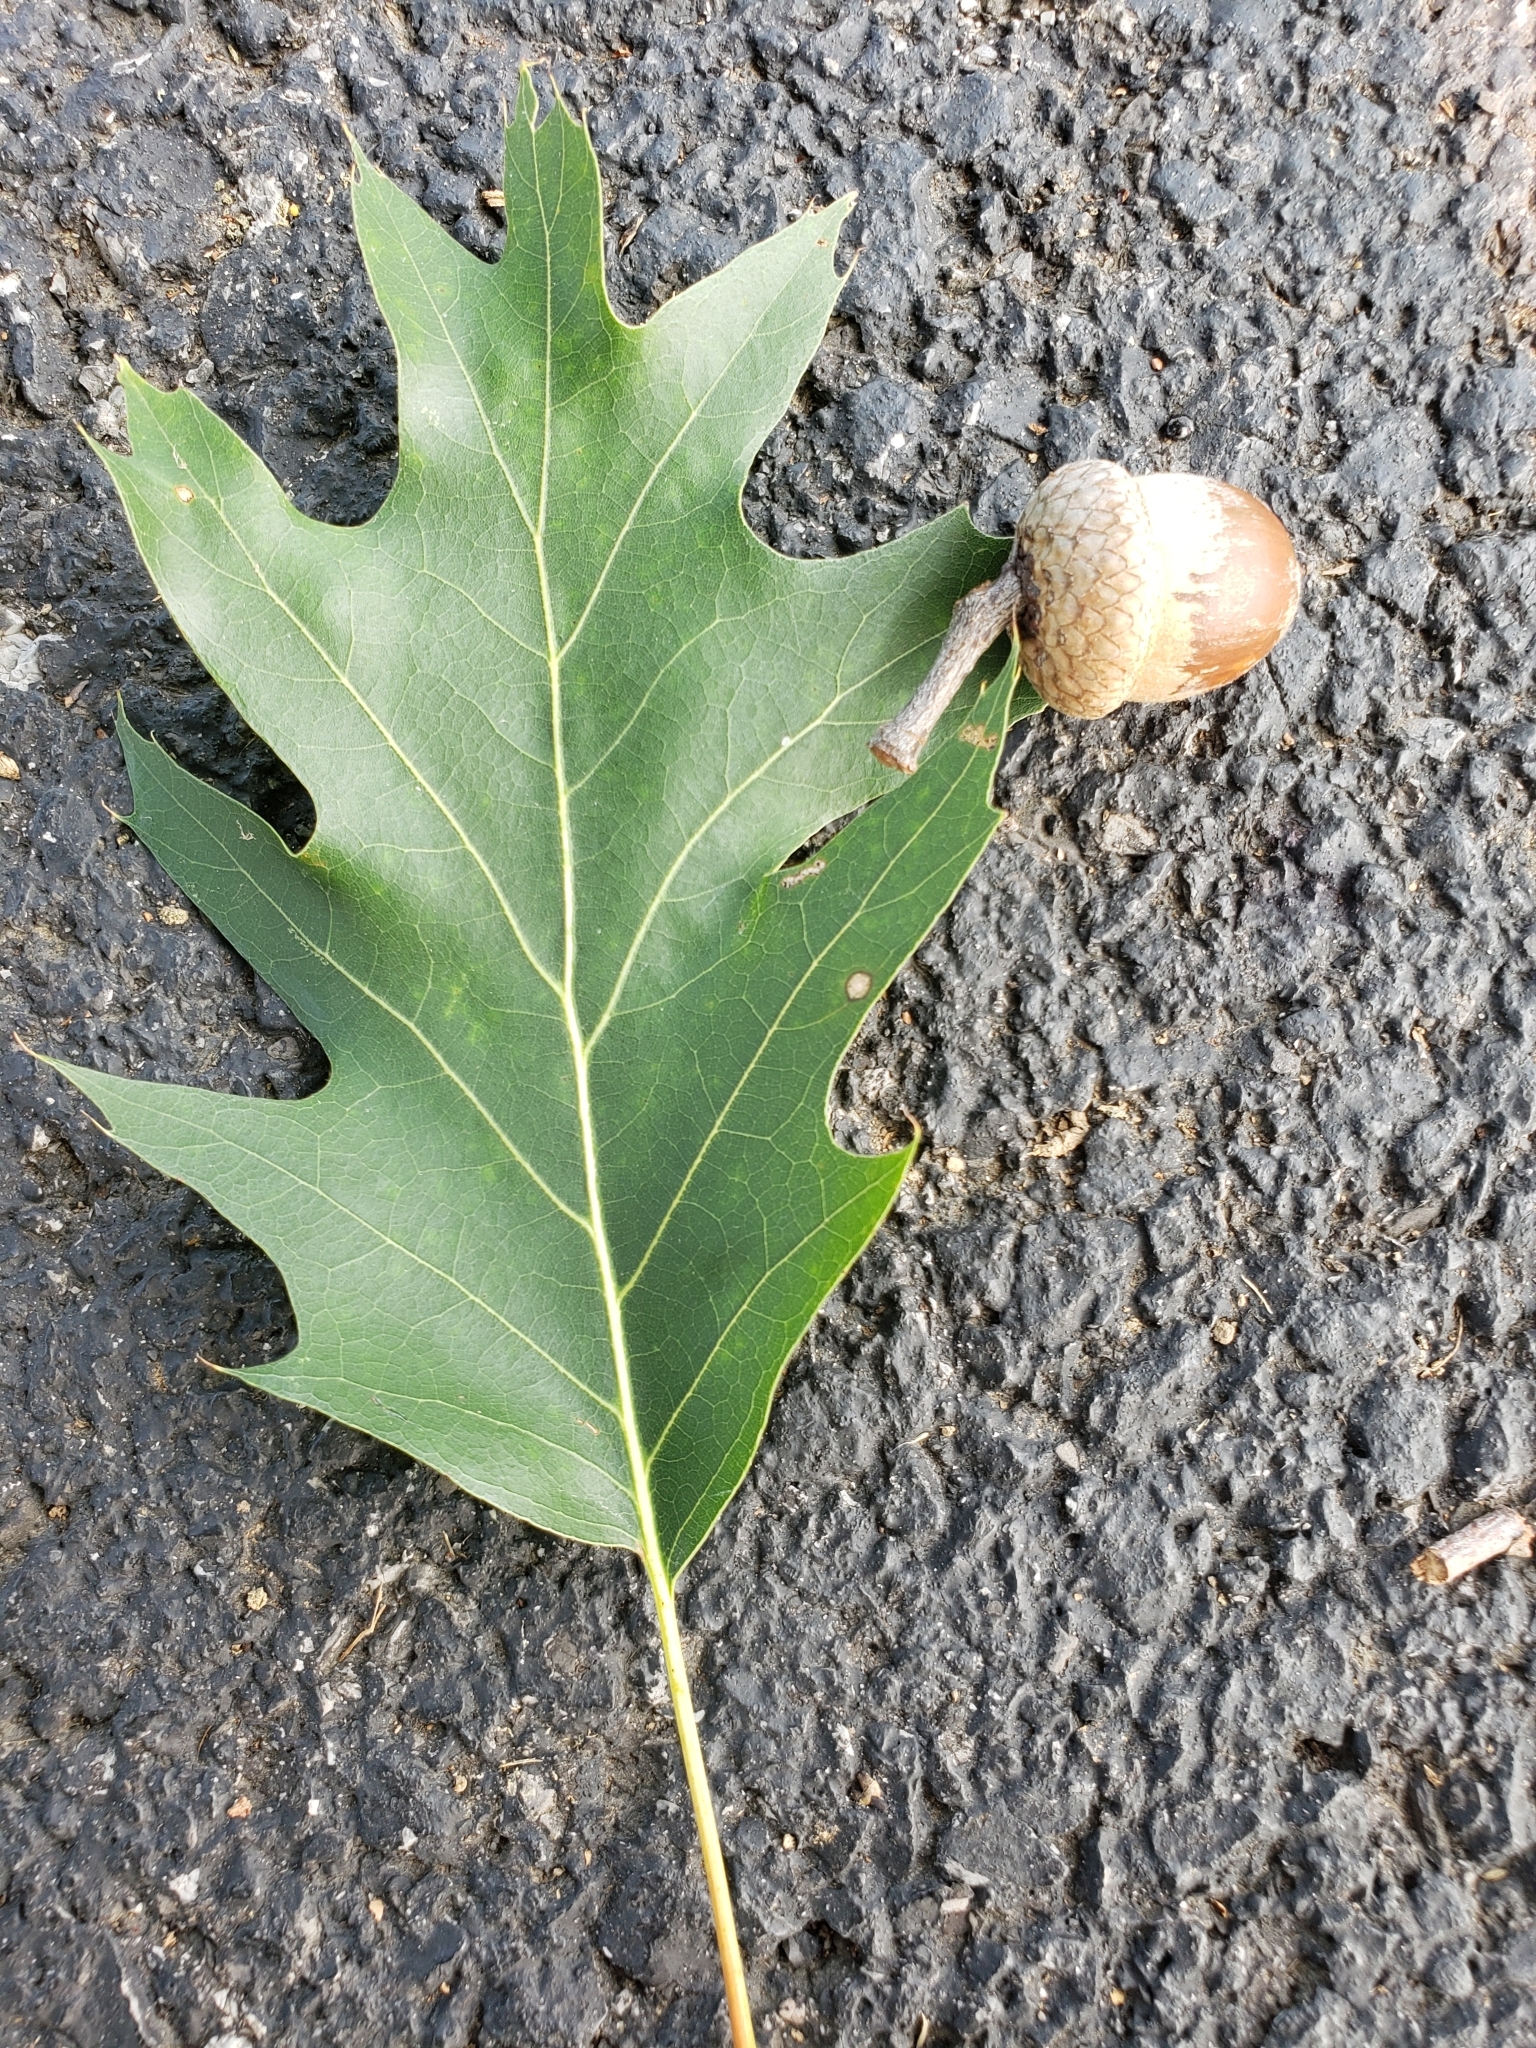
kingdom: Plantae
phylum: Tracheophyta
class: Magnoliopsida
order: Fagales
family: Fagaceae
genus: Quercus
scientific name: Quercus rubra
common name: Red oak
